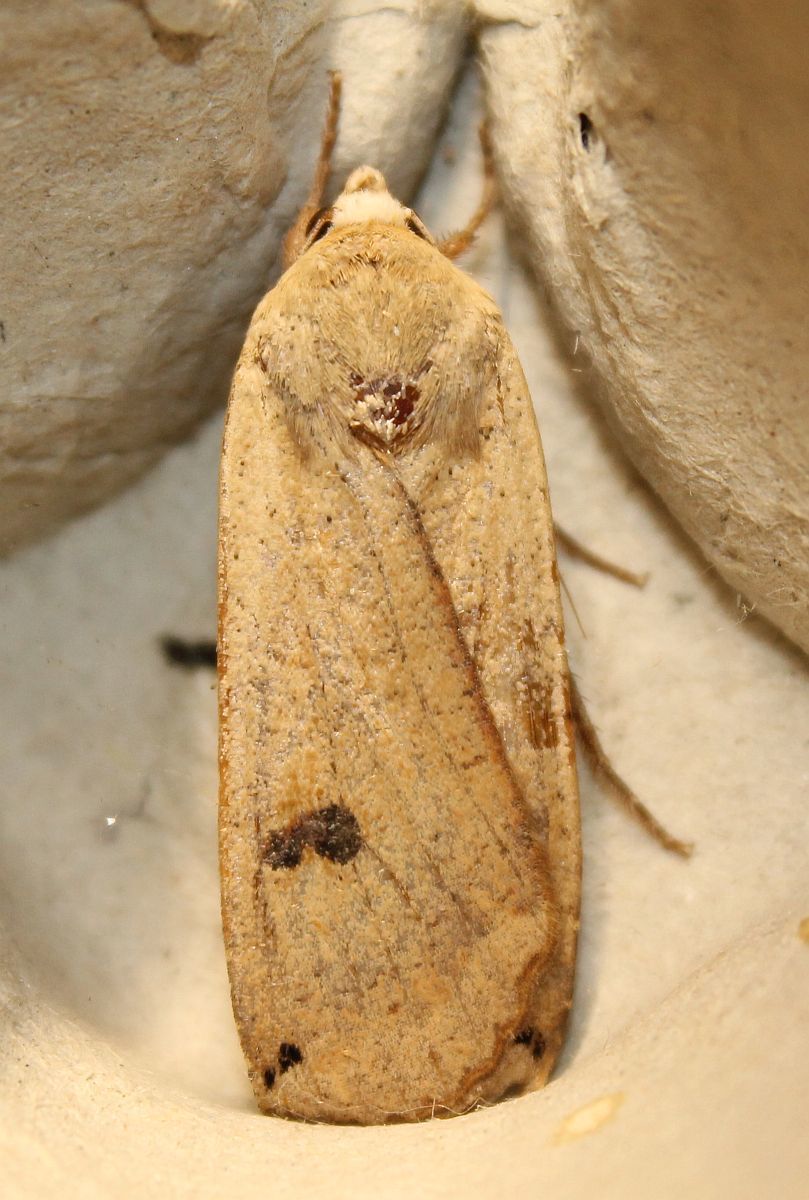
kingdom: Animalia
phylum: Arthropoda
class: Insecta
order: Lepidoptera
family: Noctuidae
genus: Noctua
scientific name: Noctua pronuba
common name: Large yellow underwing
